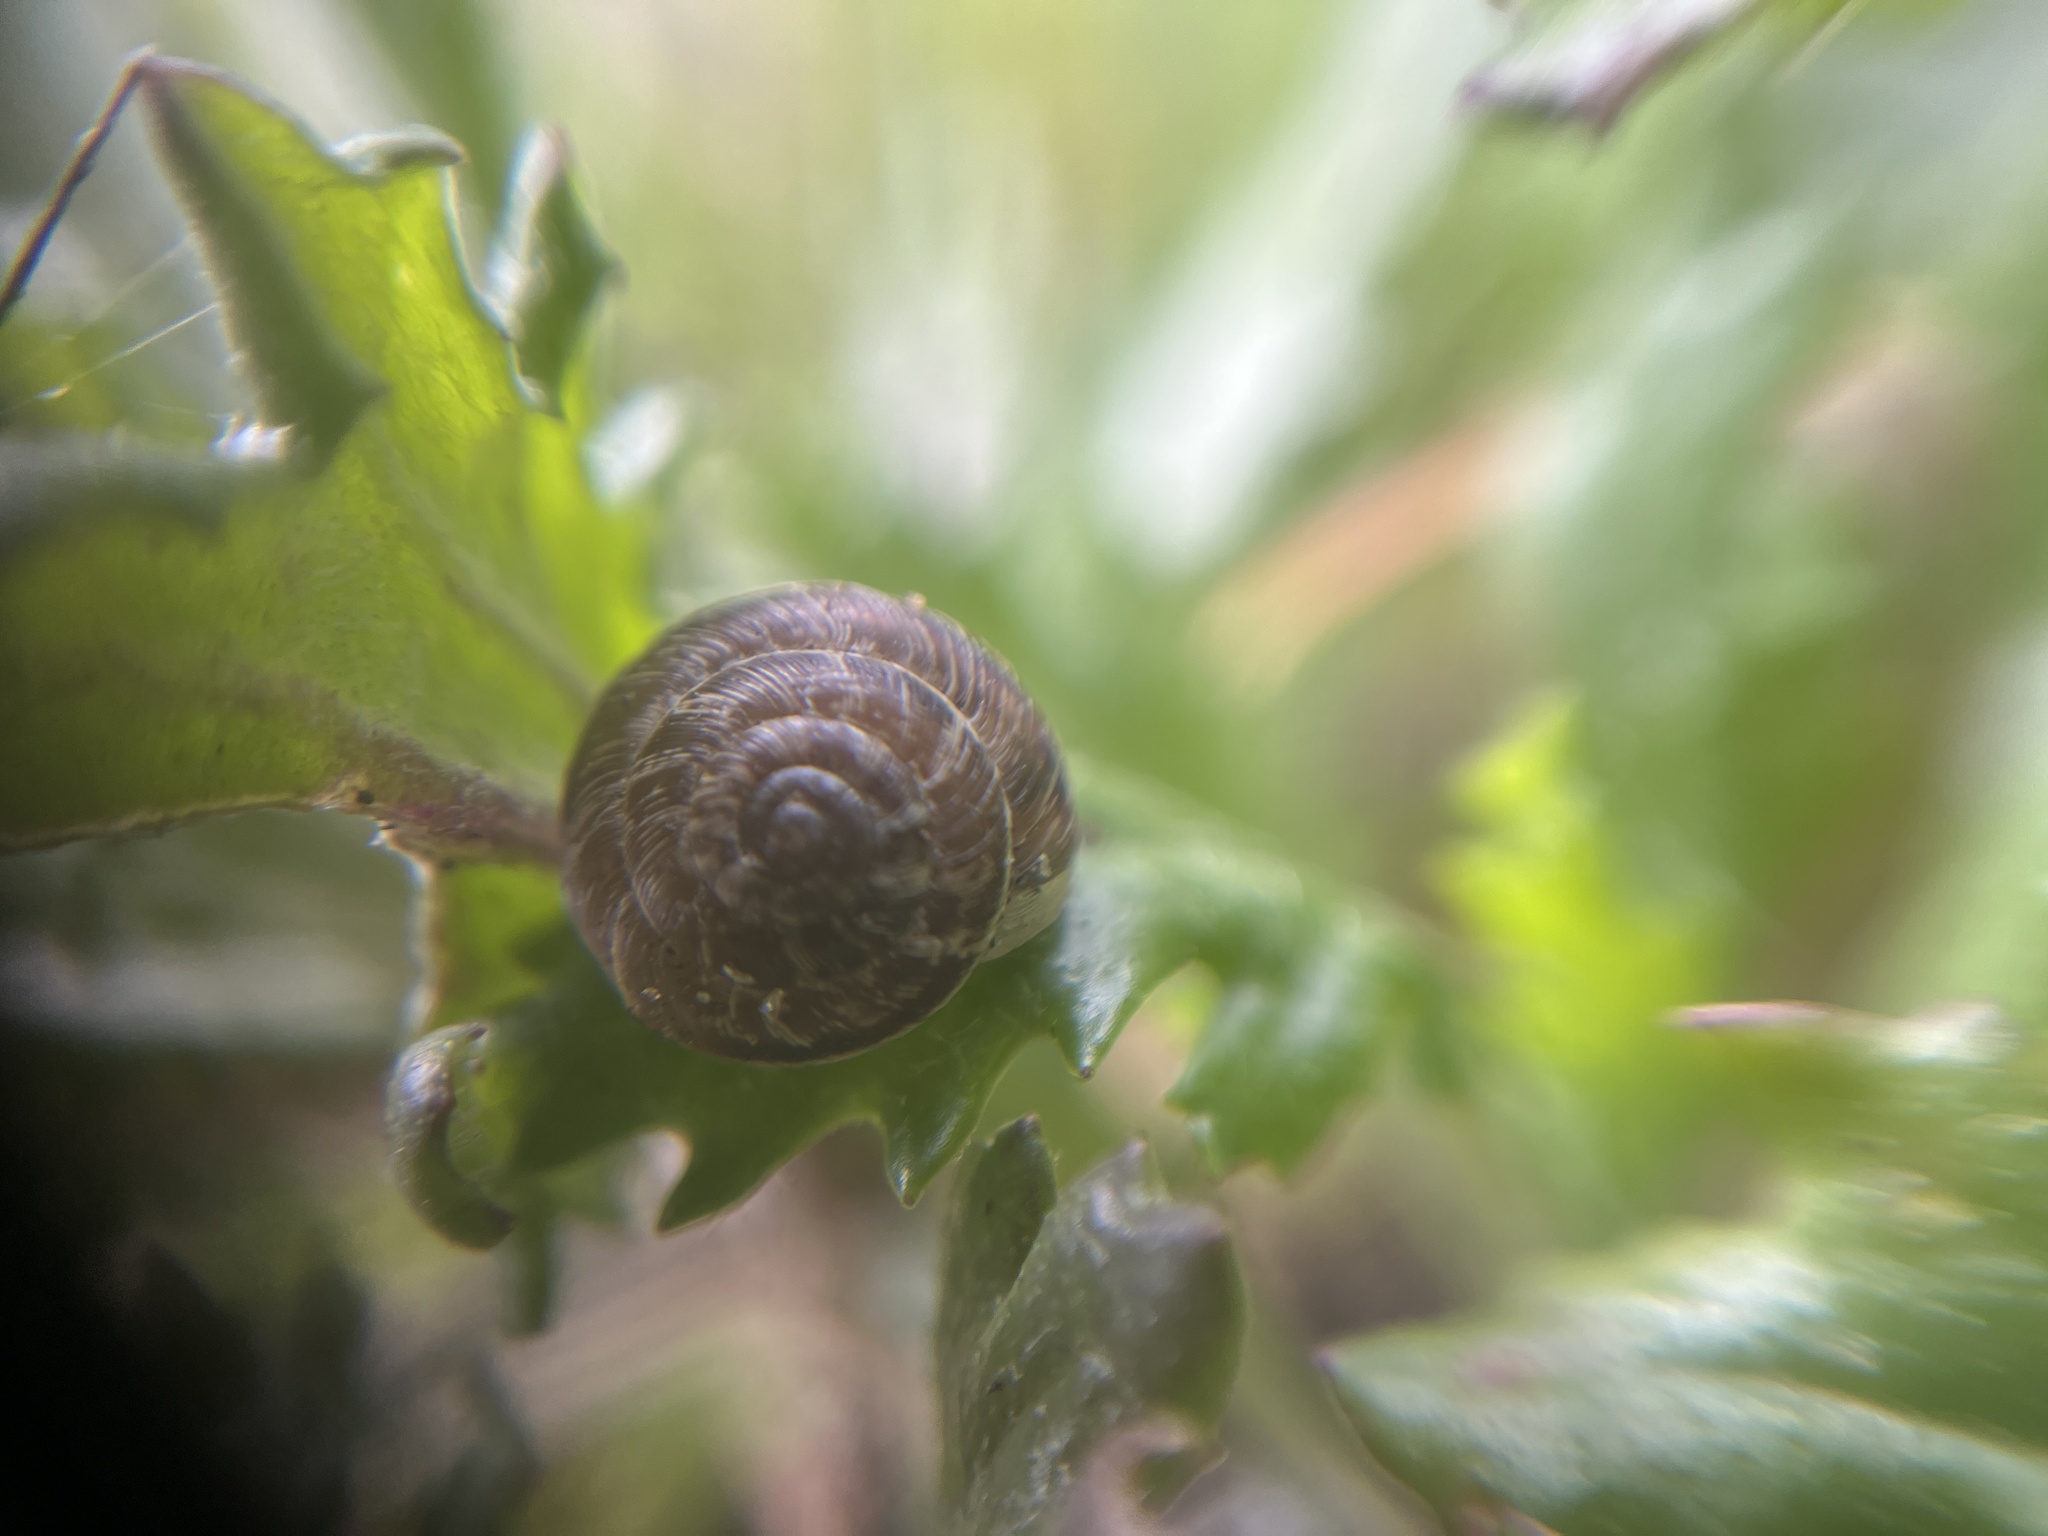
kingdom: Animalia
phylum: Mollusca
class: Gastropoda
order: Stylommatophora
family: Geomitridae
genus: Xeroplexa
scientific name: Xeroplexa intersecta
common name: Wrinkled snail
